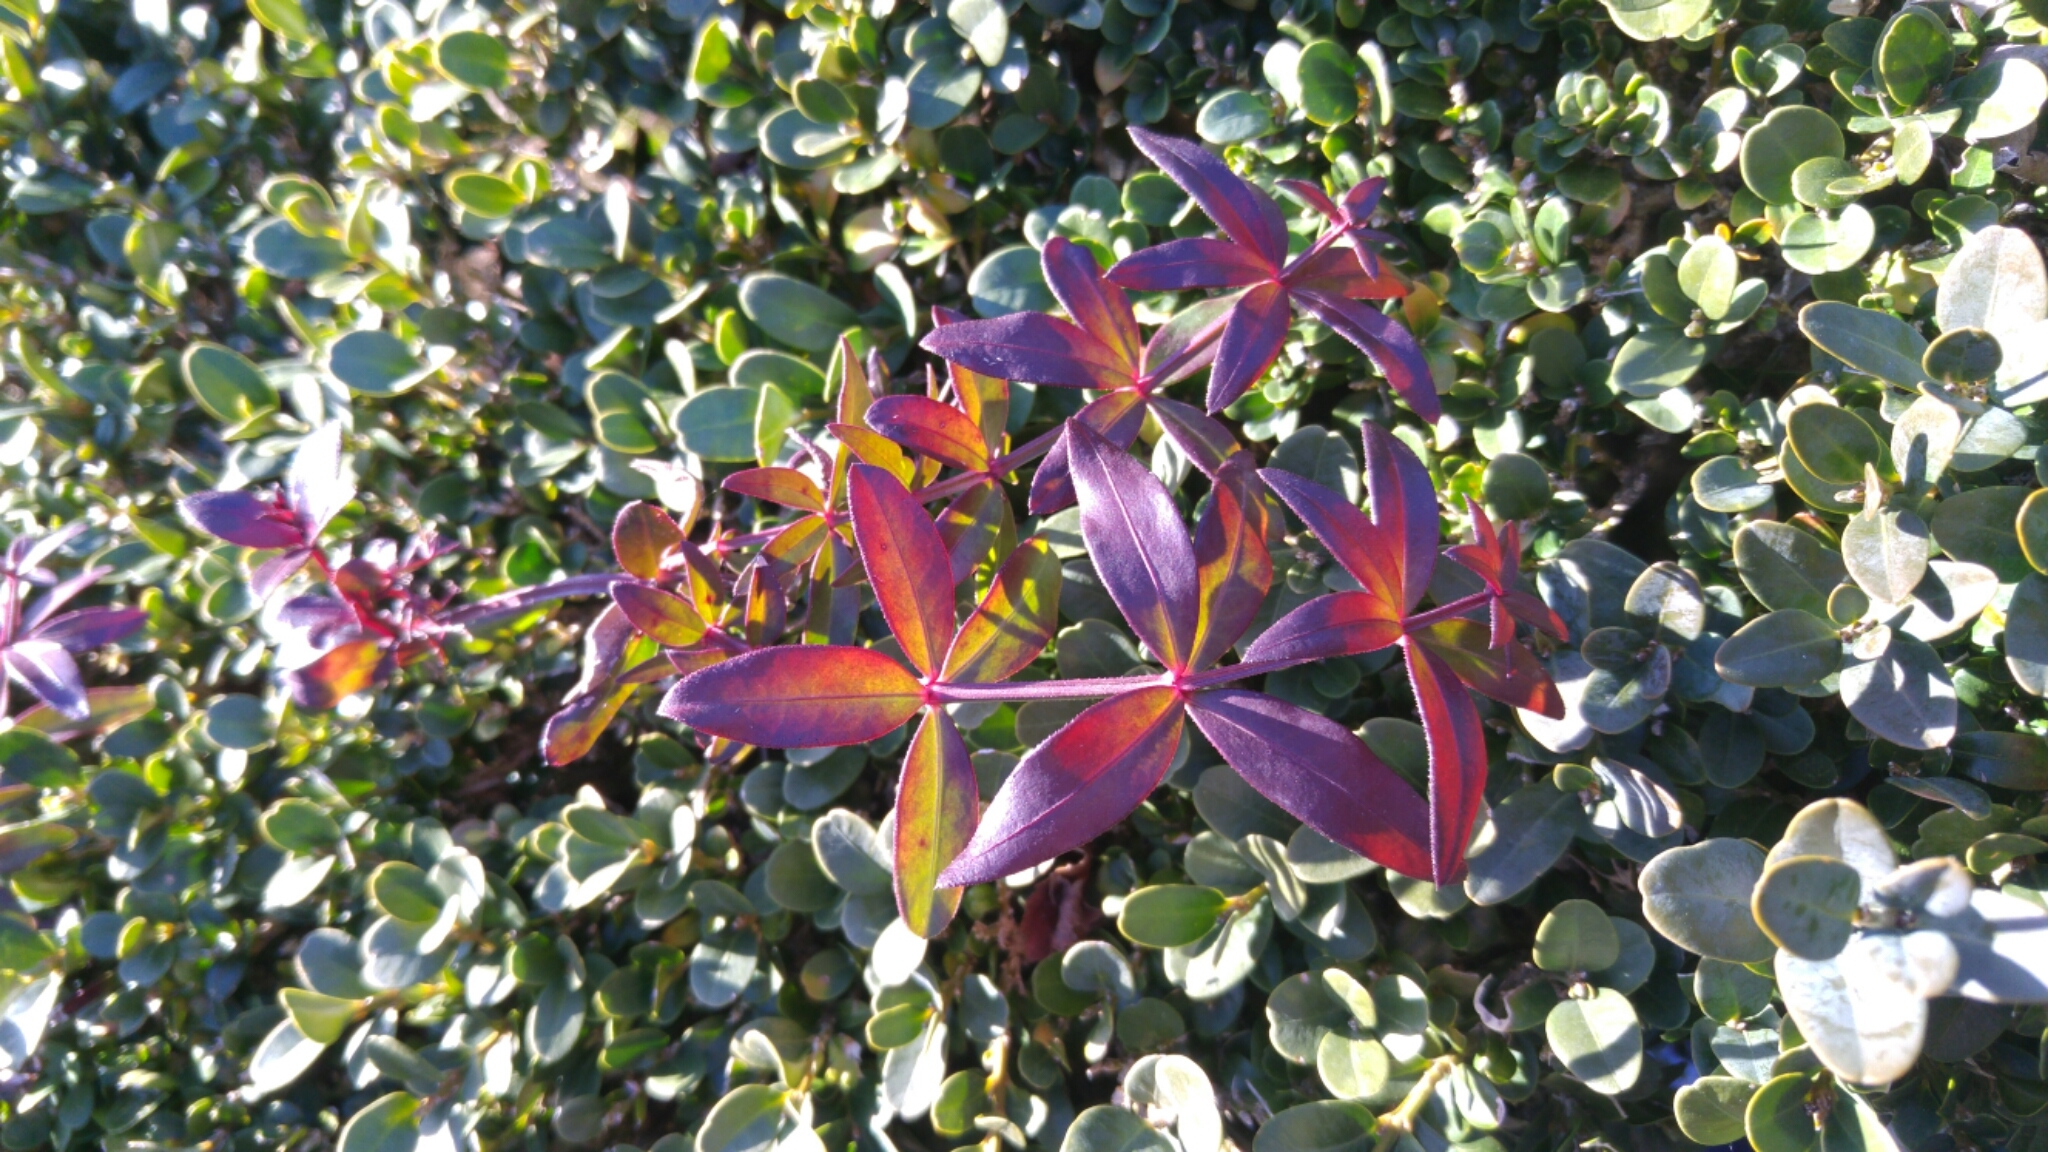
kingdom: Plantae
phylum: Tracheophyta
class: Magnoliopsida
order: Gentianales
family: Rubiaceae
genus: Rubia
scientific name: Rubia peregrina
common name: Wild madder
